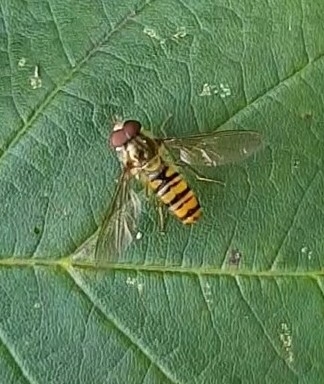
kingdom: Animalia
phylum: Arthropoda
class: Insecta
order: Diptera
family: Syrphidae
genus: Episyrphus
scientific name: Episyrphus balteatus
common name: Marmalade hoverfly
